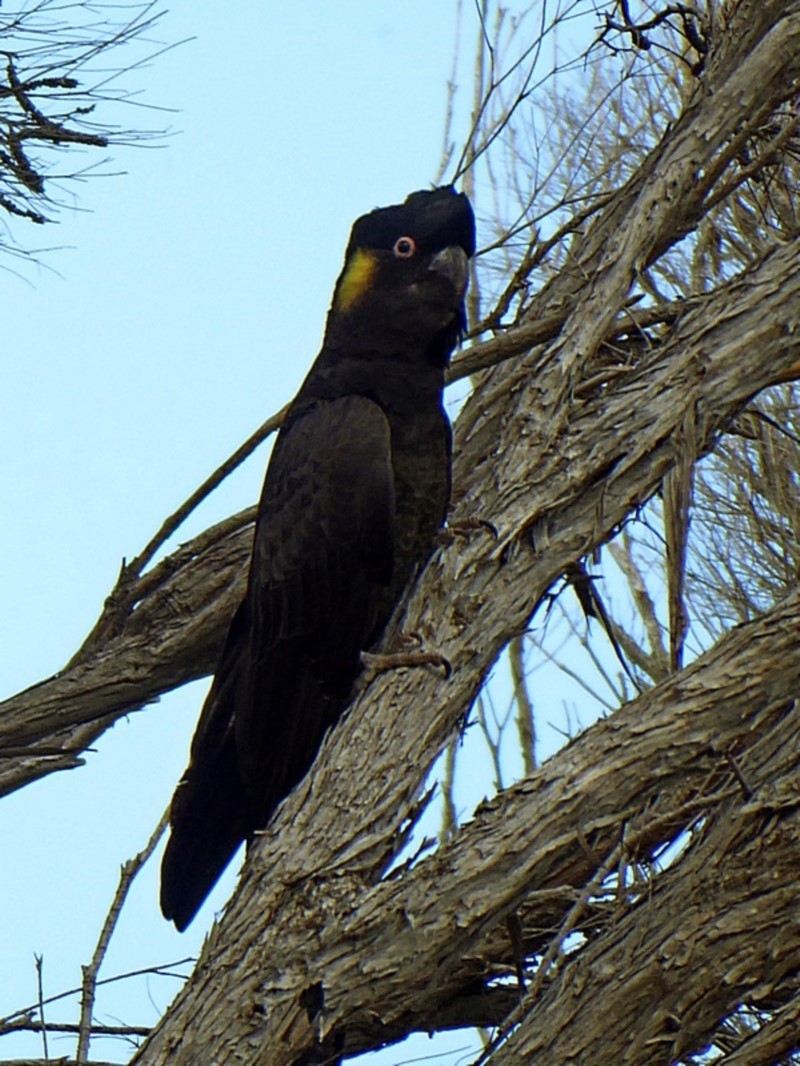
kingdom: Animalia
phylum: Chordata
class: Aves
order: Psittaciformes
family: Cacatuidae
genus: Zanda
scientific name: Zanda funerea
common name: Yellow-tailed black-cockatoo
